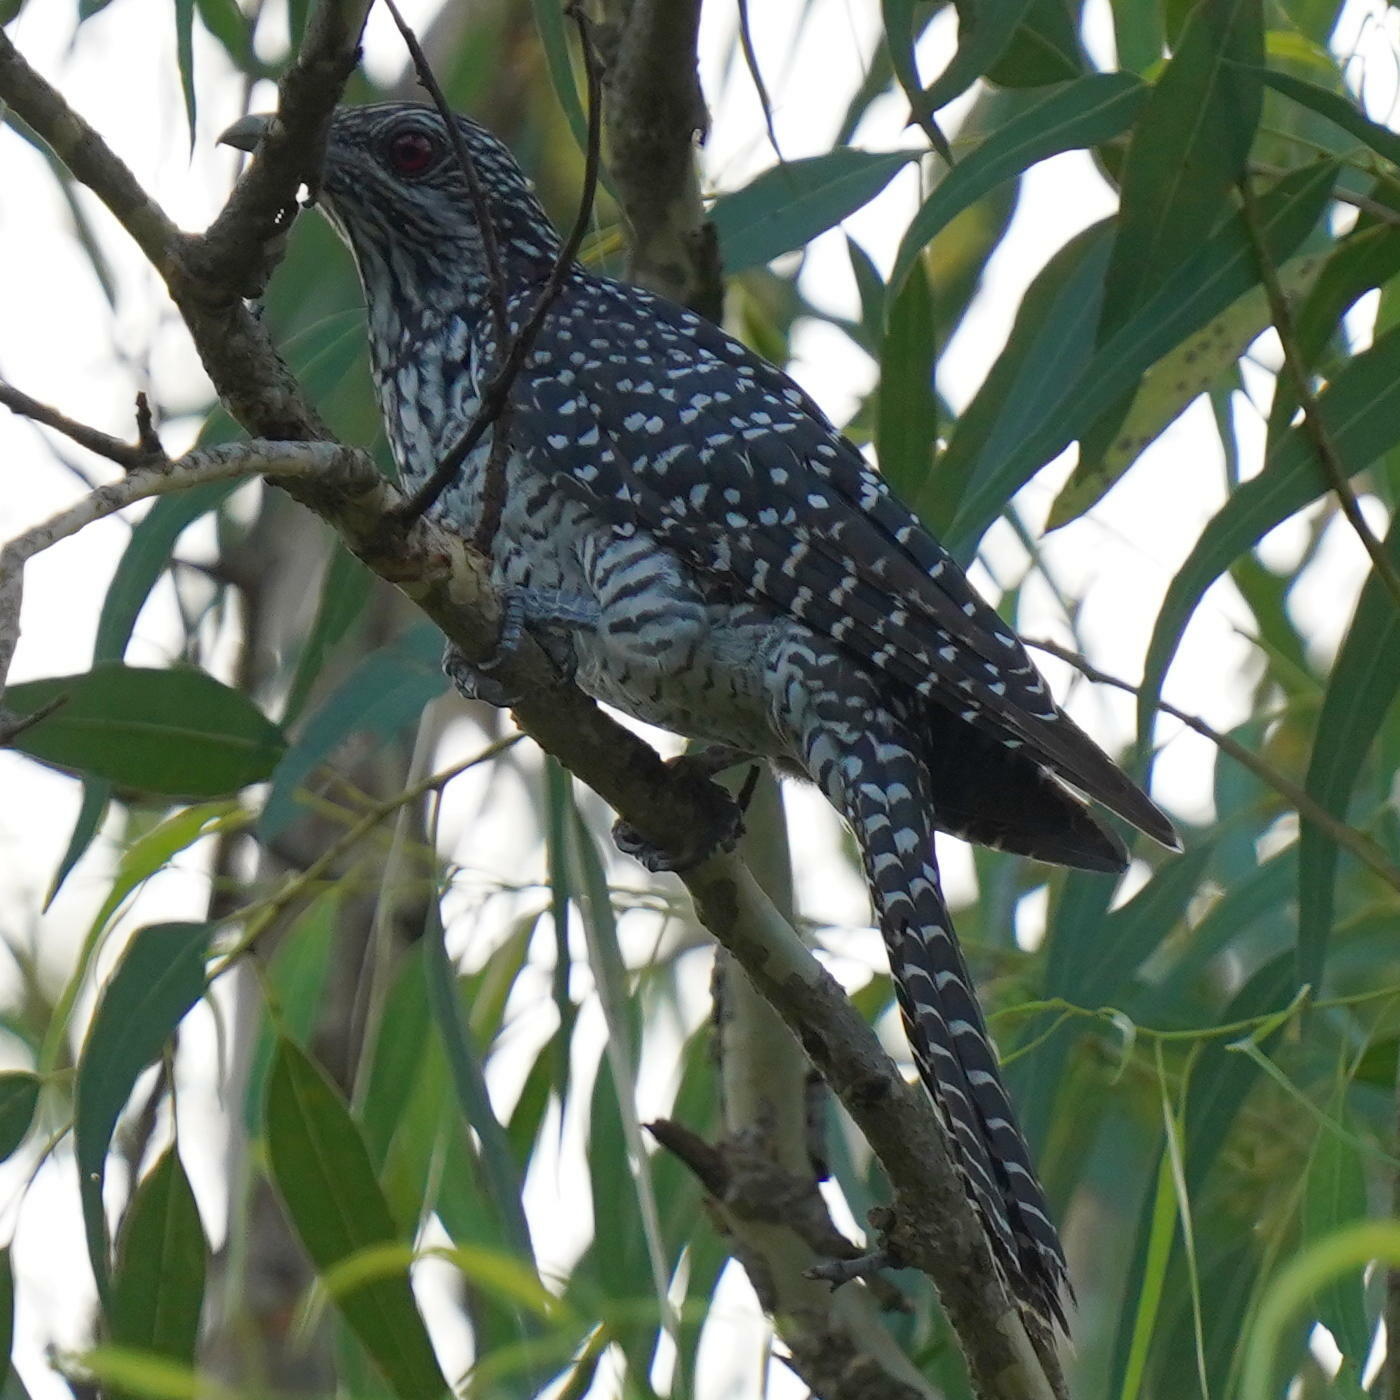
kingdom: Animalia
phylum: Chordata
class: Aves
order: Cuculiformes
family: Cuculidae
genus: Eudynamys
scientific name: Eudynamys scolopaceus
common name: Asian koel
